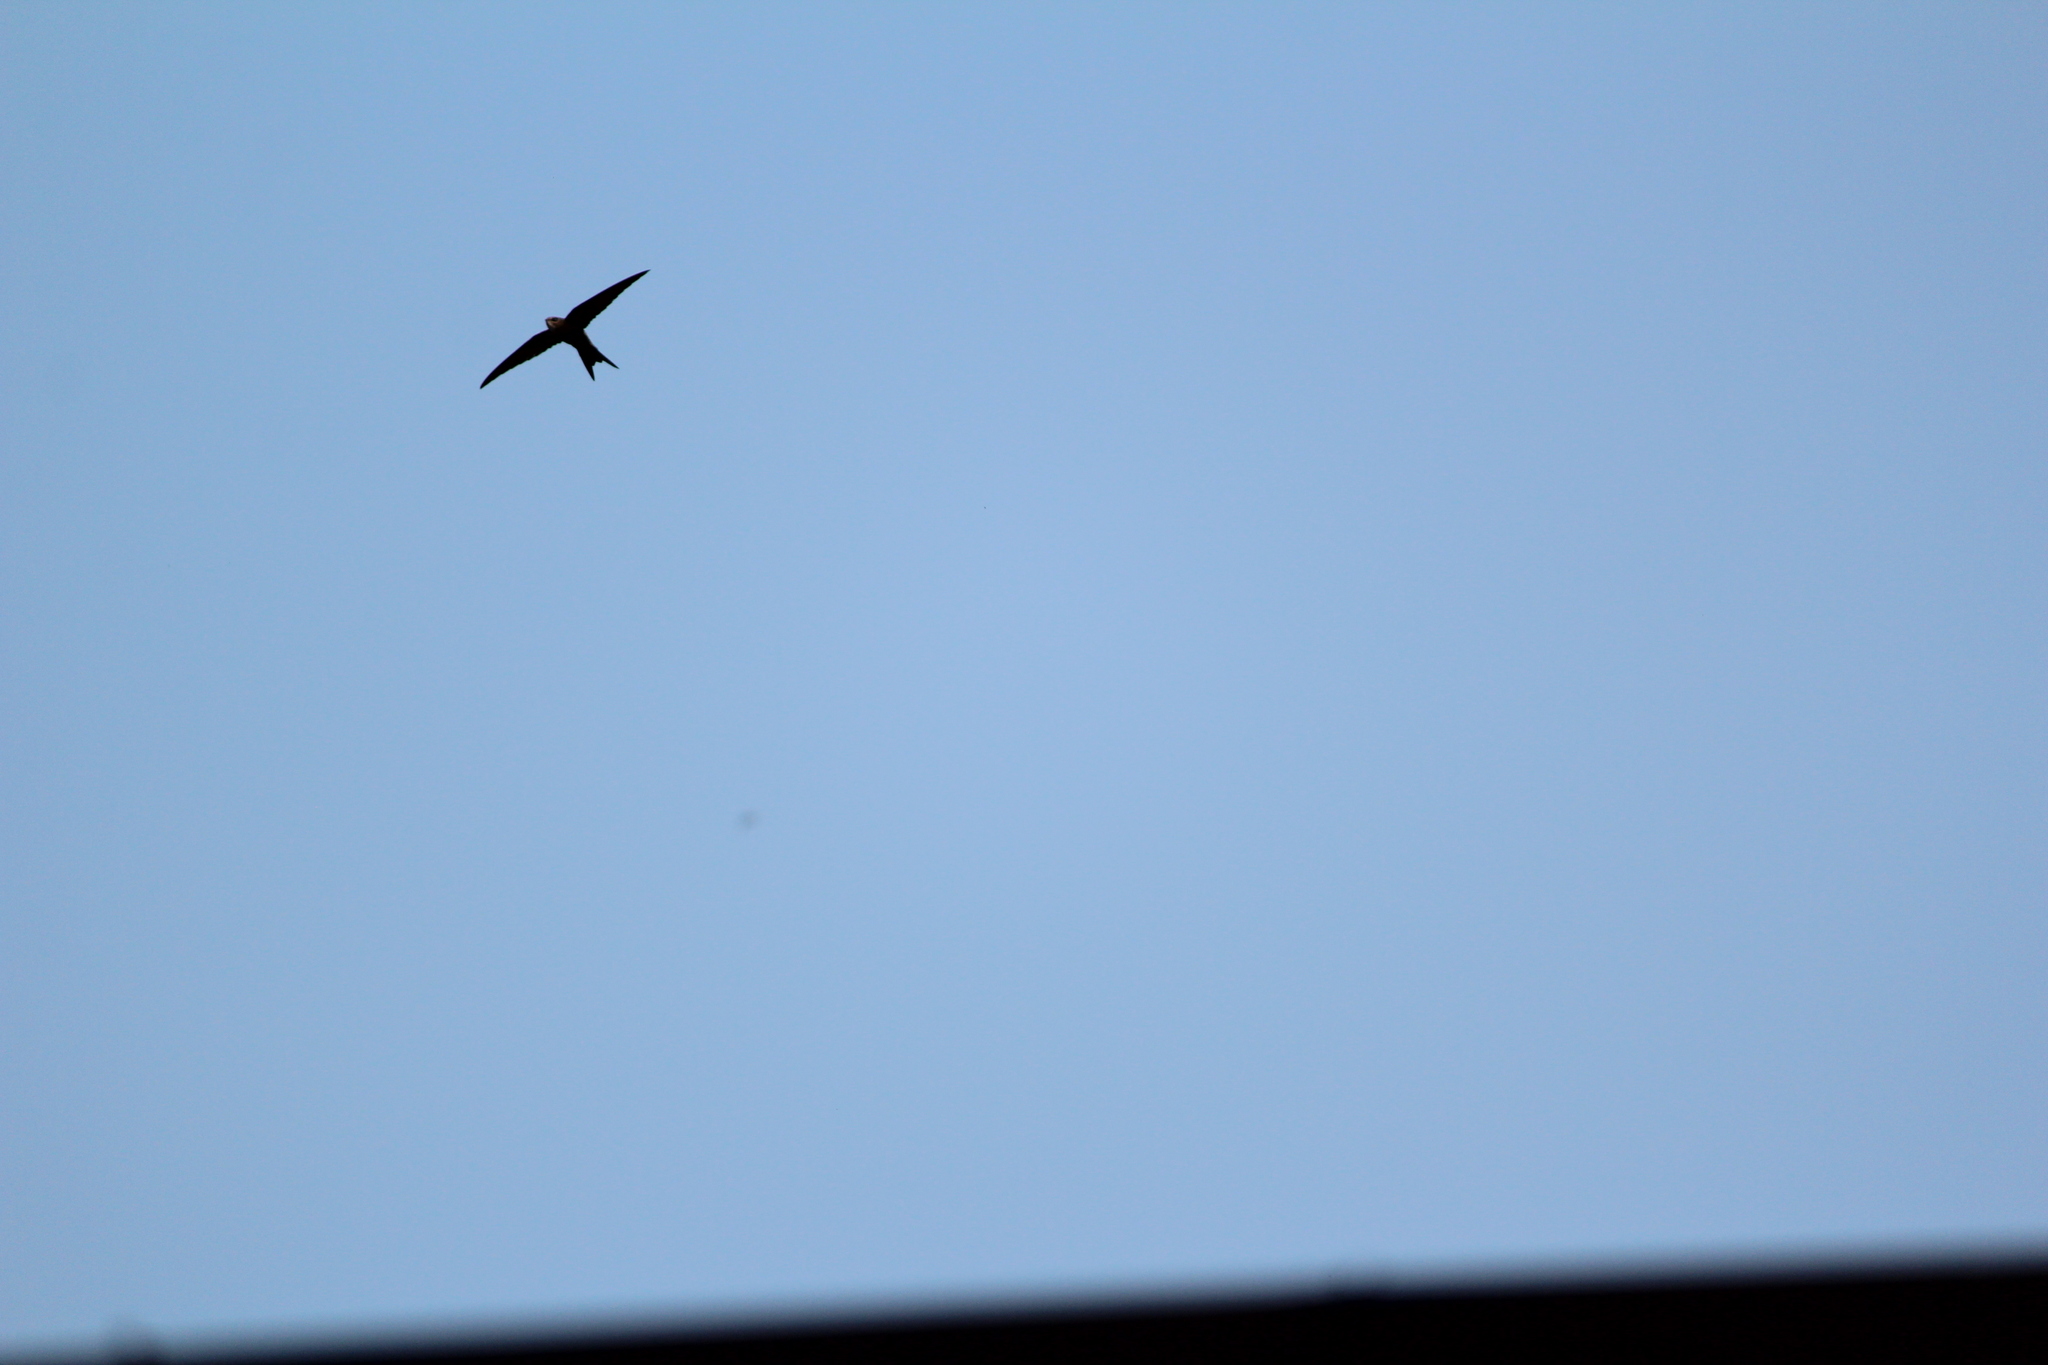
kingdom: Animalia
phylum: Chordata
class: Aves
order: Apodiformes
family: Apodidae
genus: Apus
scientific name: Apus pacificus
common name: Pacific swift
